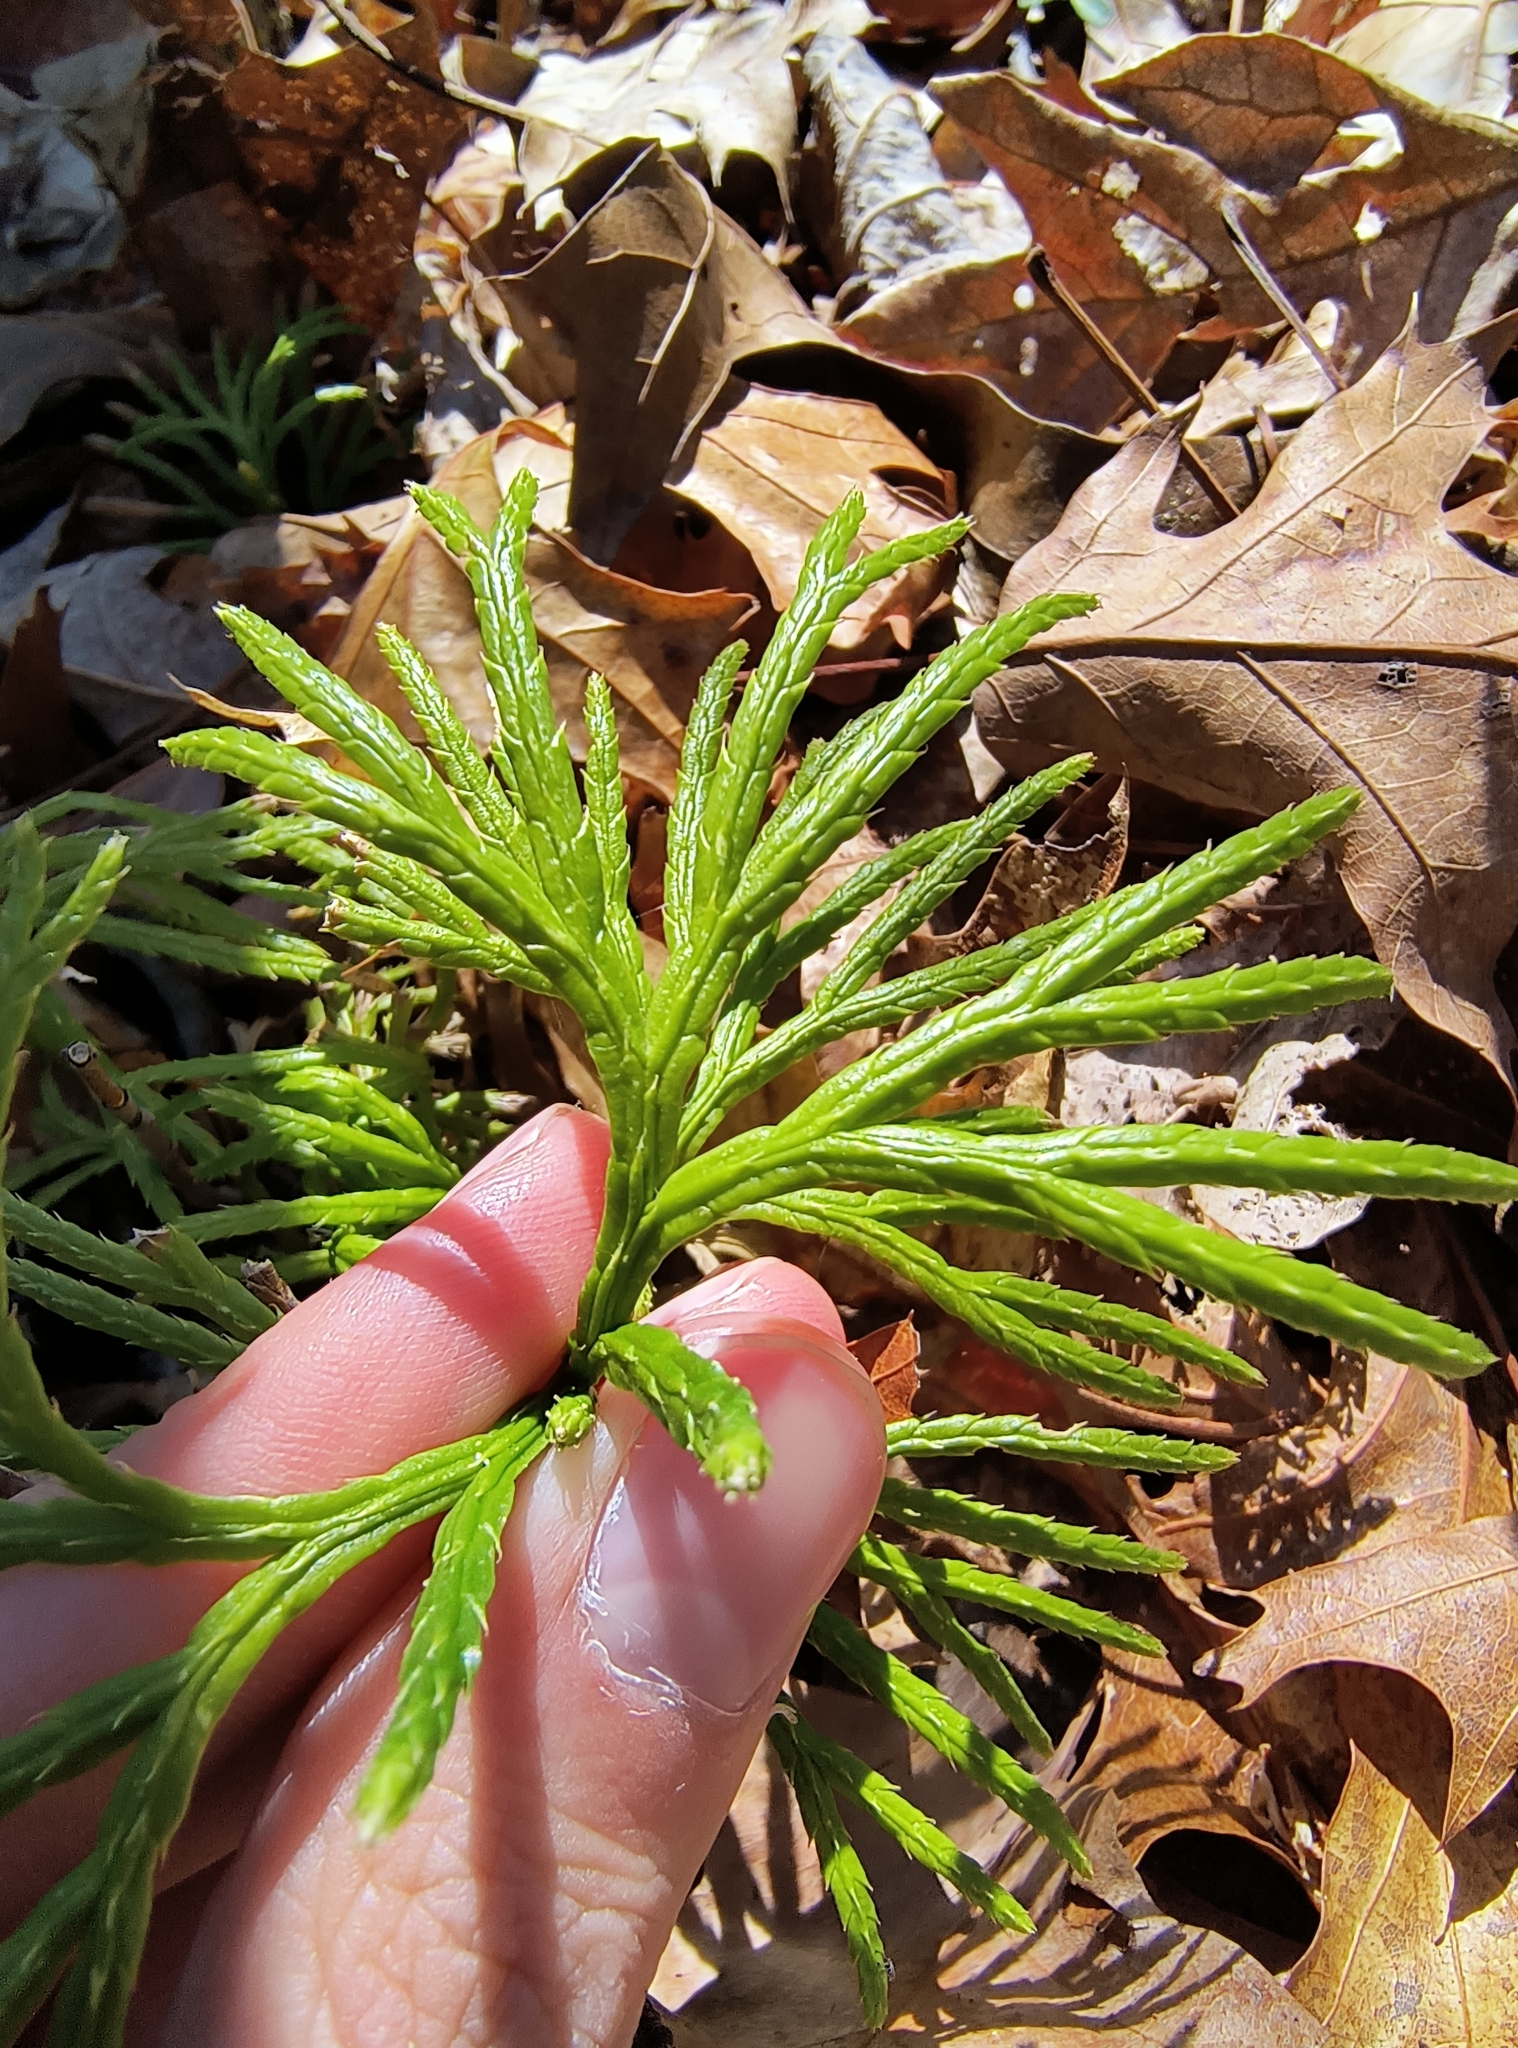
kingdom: Plantae
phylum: Tracheophyta
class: Lycopodiopsida
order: Lycopodiales
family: Lycopodiaceae
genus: Diphasiastrum
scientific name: Diphasiastrum digitatum
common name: Southern running-pine
